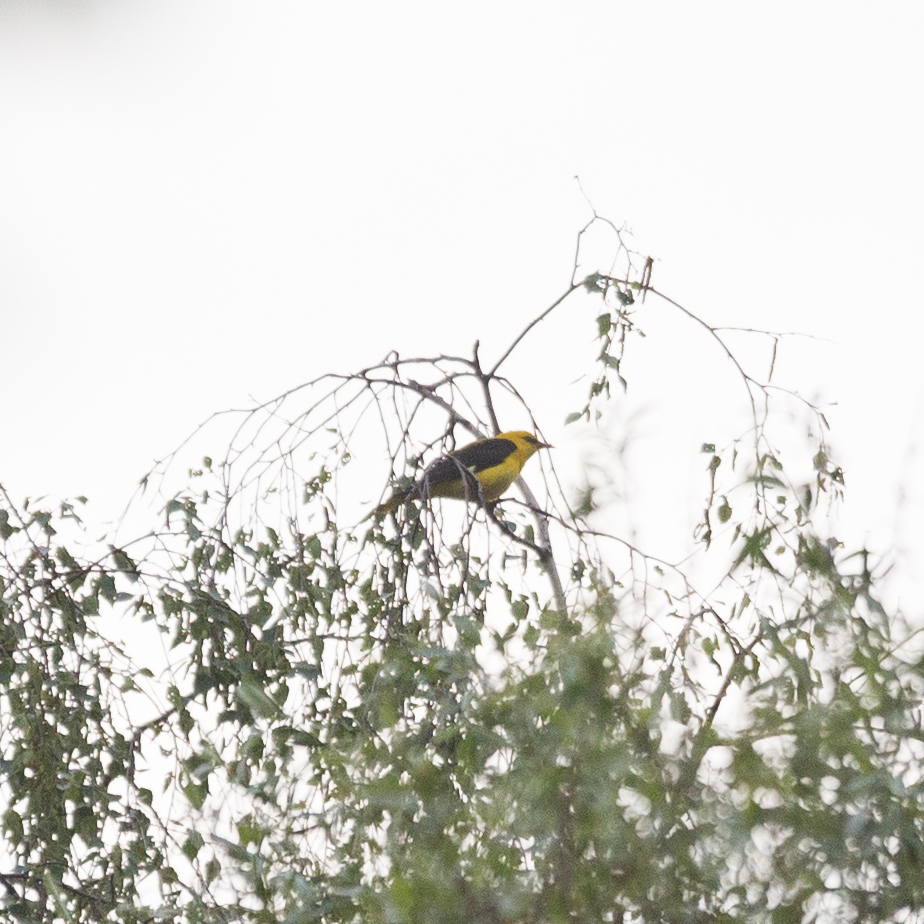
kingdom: Animalia
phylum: Chordata
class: Aves
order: Passeriformes
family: Oriolidae
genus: Oriolus
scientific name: Oriolus oriolus
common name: Eurasian golden oriole
